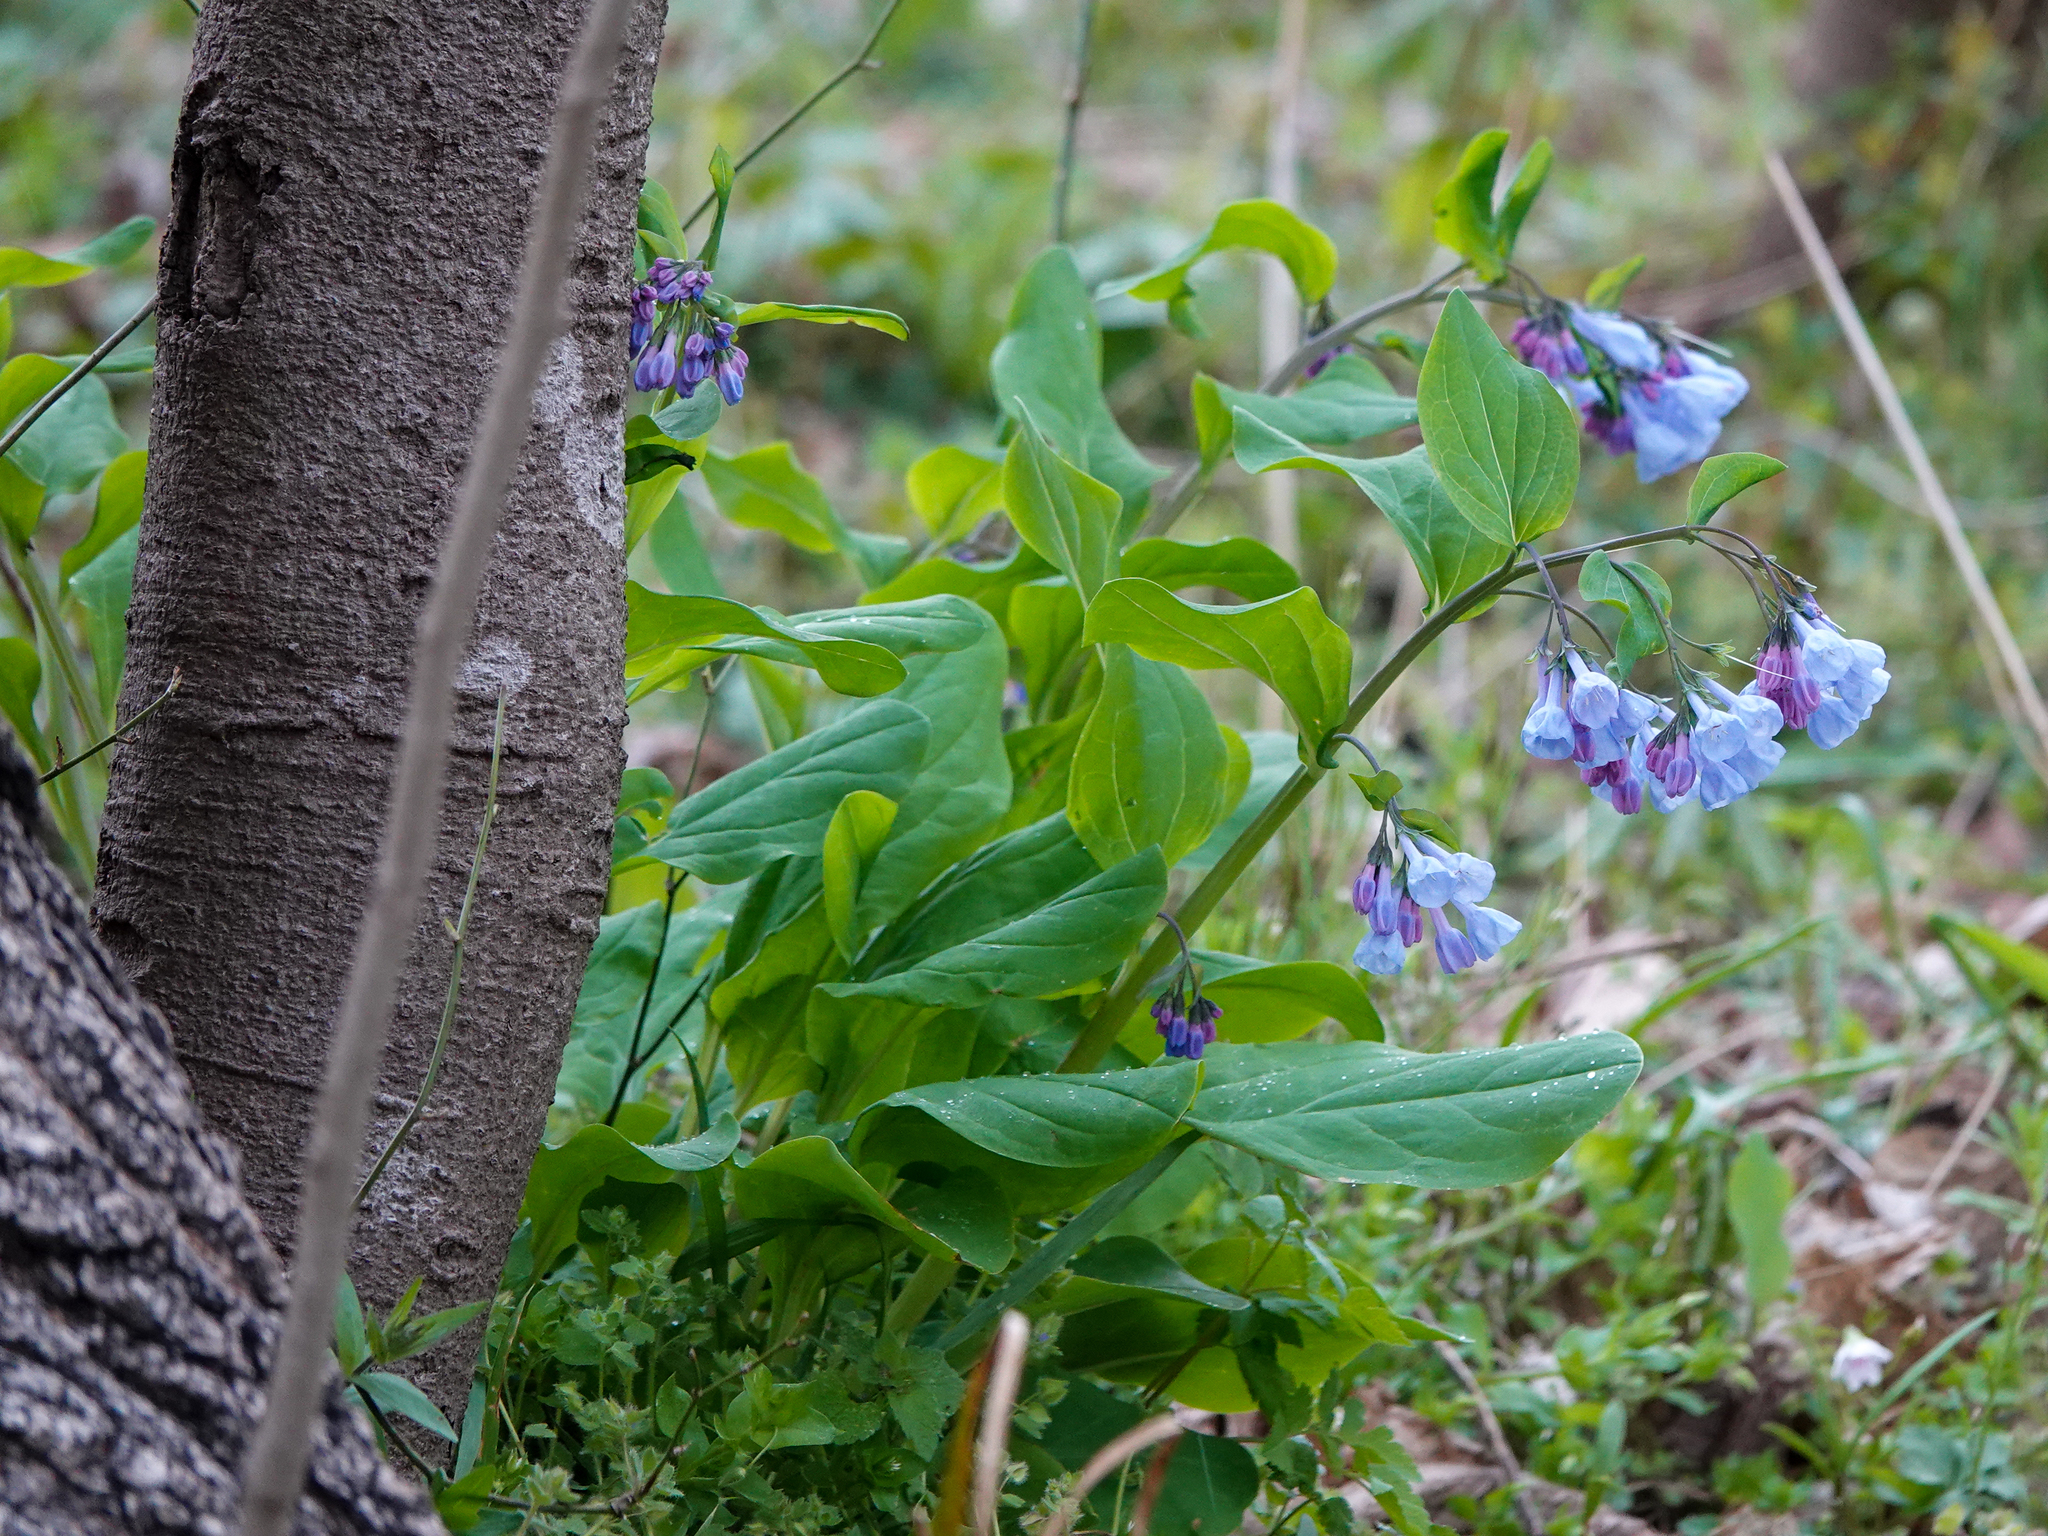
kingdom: Plantae
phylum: Tracheophyta
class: Magnoliopsida
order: Boraginales
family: Boraginaceae
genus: Mertensia
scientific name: Mertensia virginica
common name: Virginia bluebells
